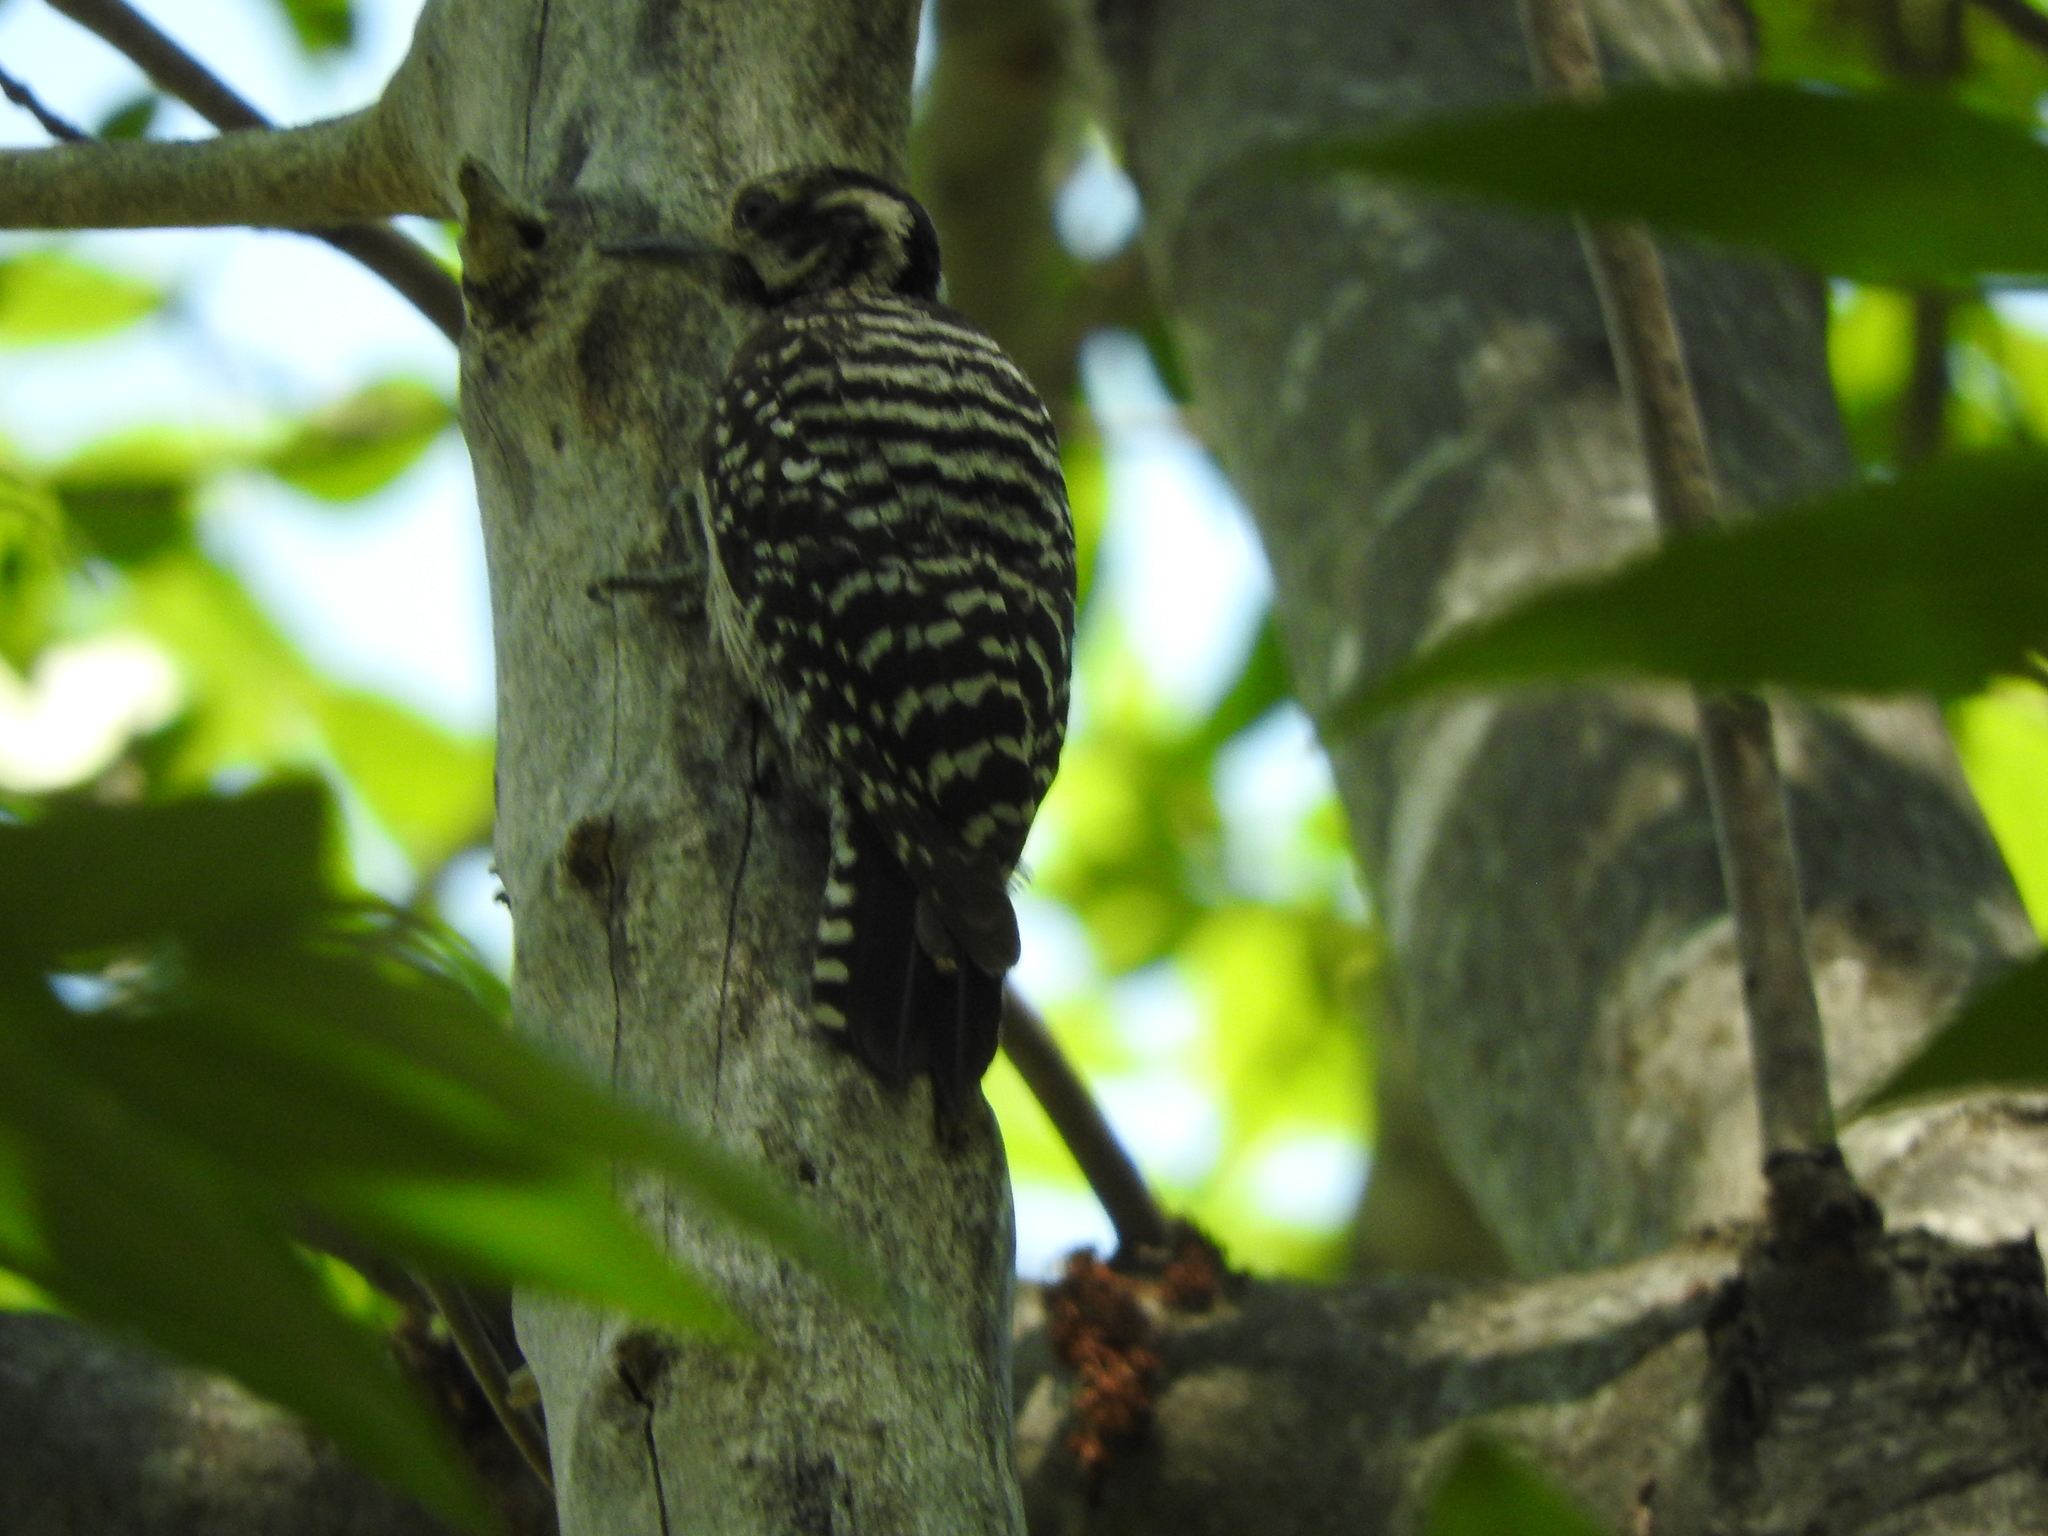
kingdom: Animalia
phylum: Chordata
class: Aves
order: Piciformes
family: Picidae
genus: Dryobates
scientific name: Dryobates scalaris
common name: Ladder-backed woodpecker
